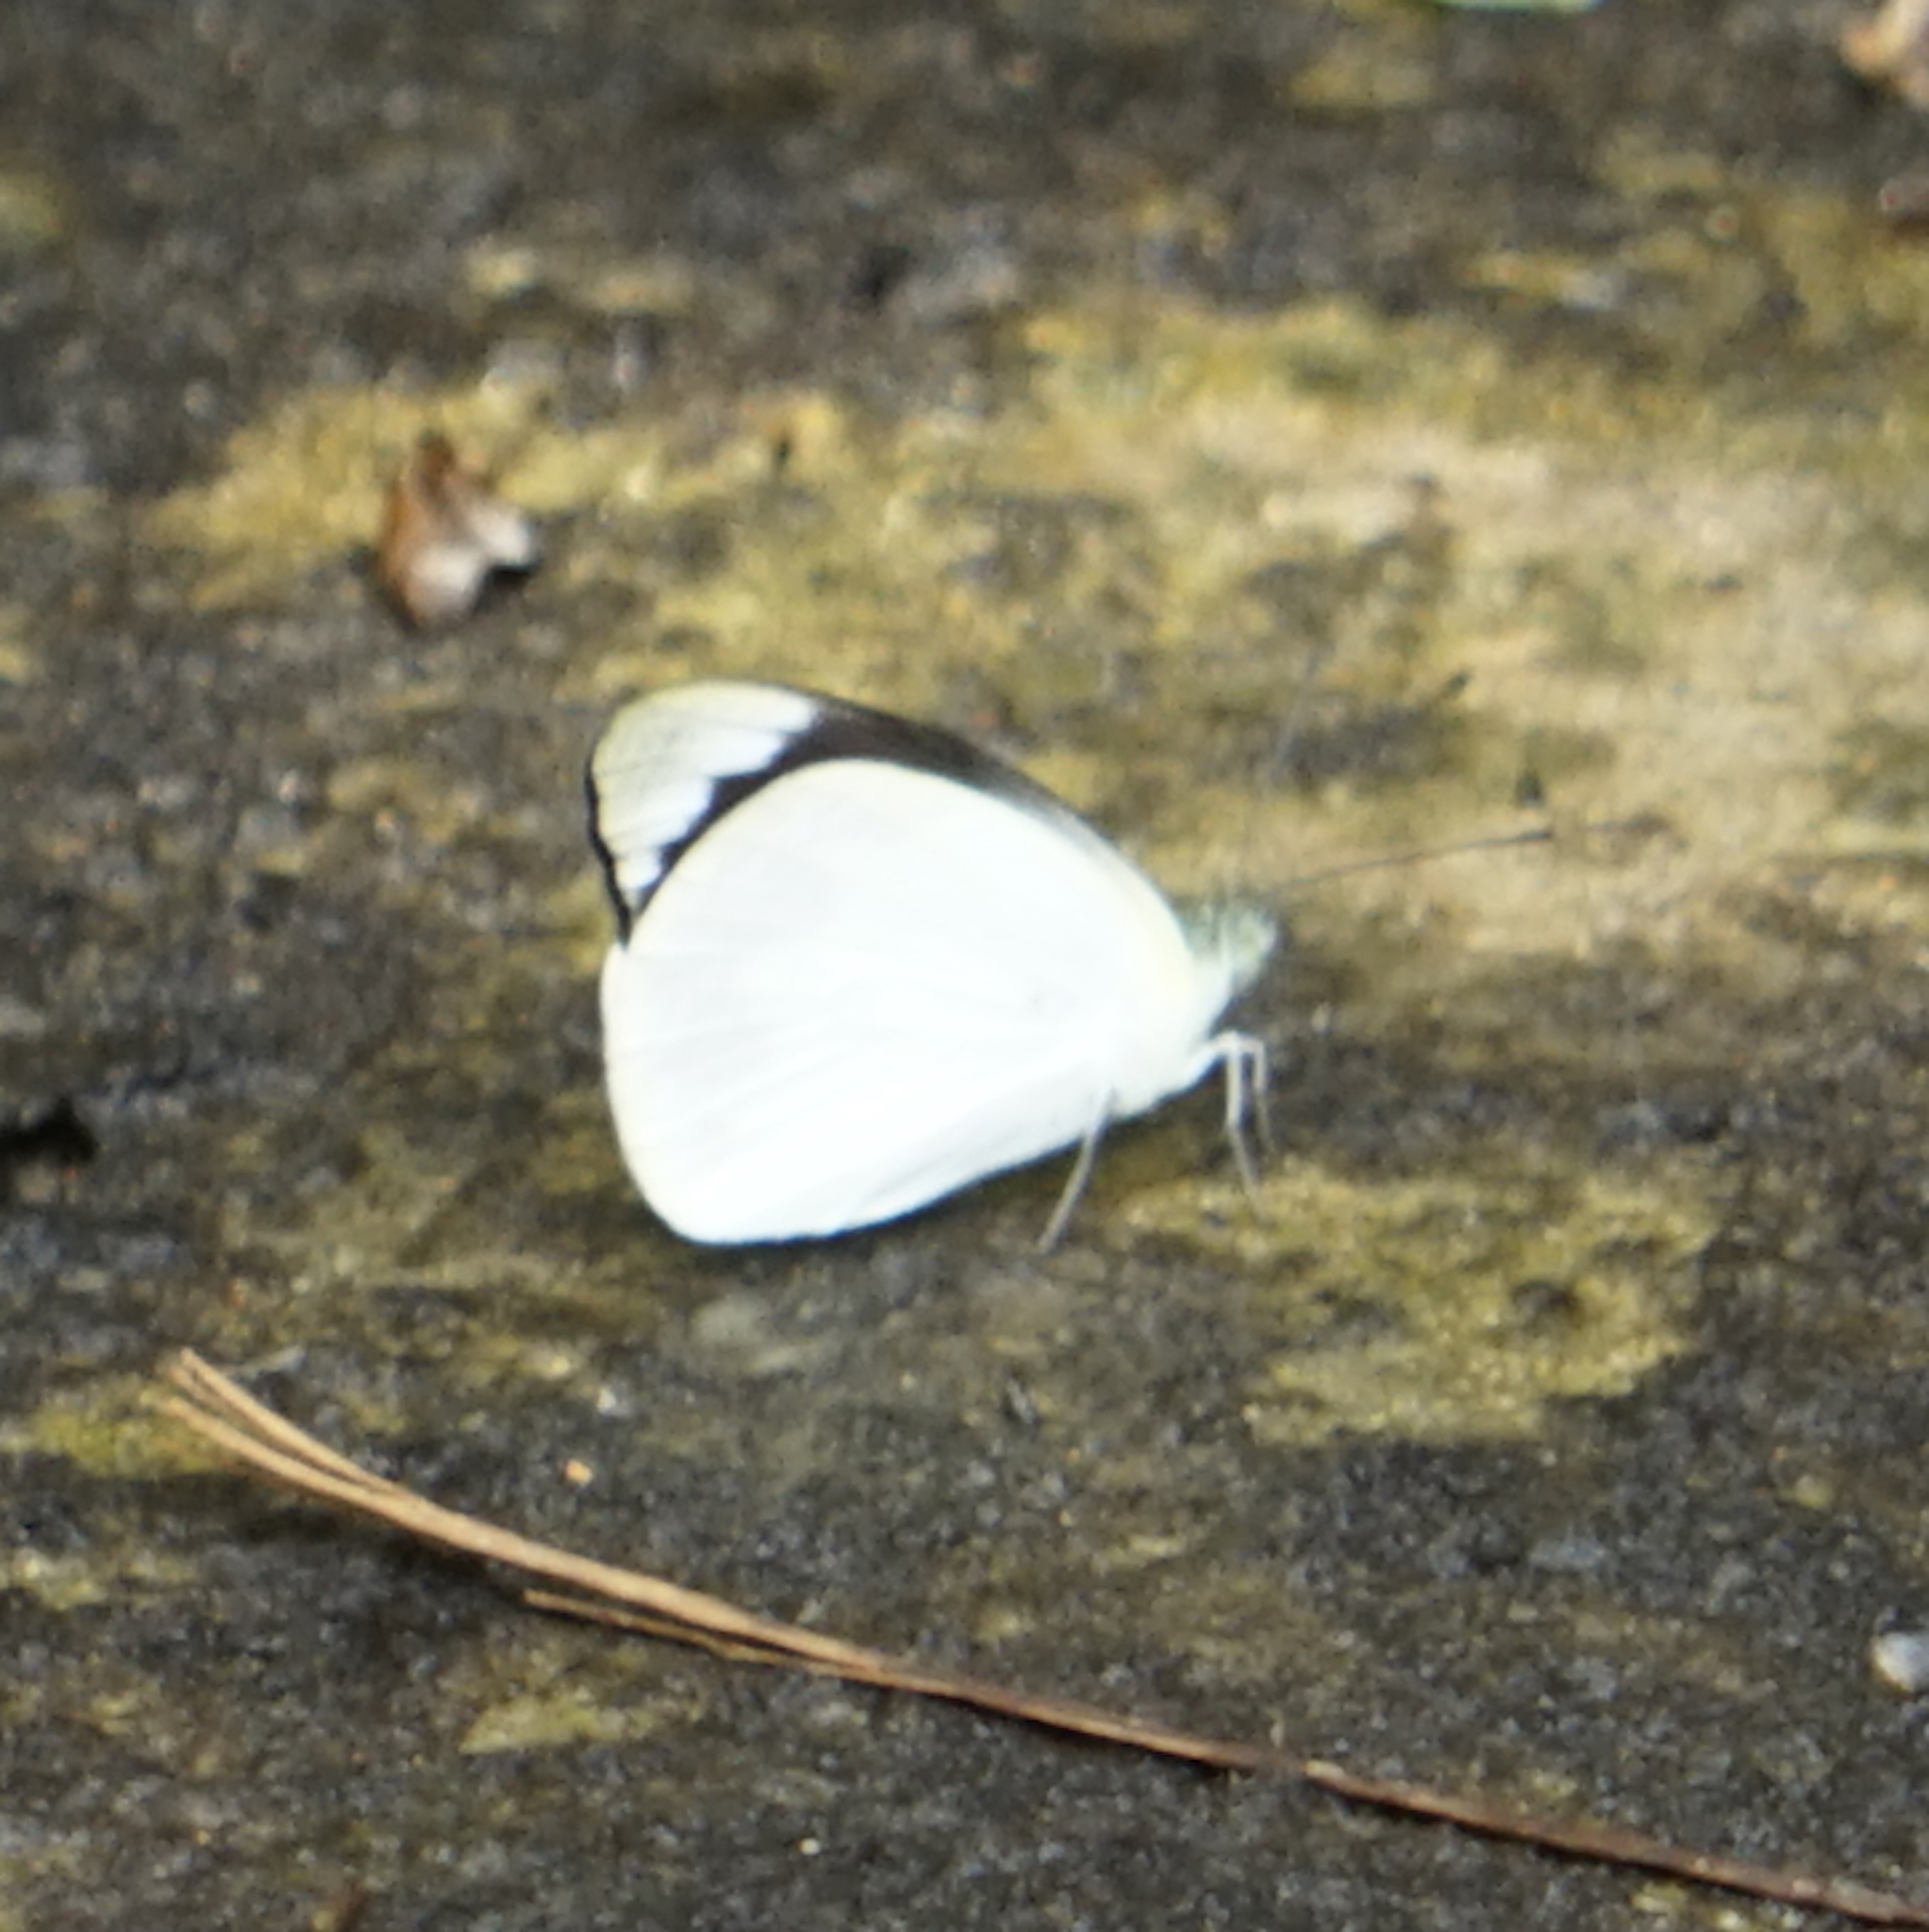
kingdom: Animalia
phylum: Arthropoda
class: Insecta
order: Lepidoptera
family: Pieridae
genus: Appias
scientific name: Appias indra
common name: Plain puffin
